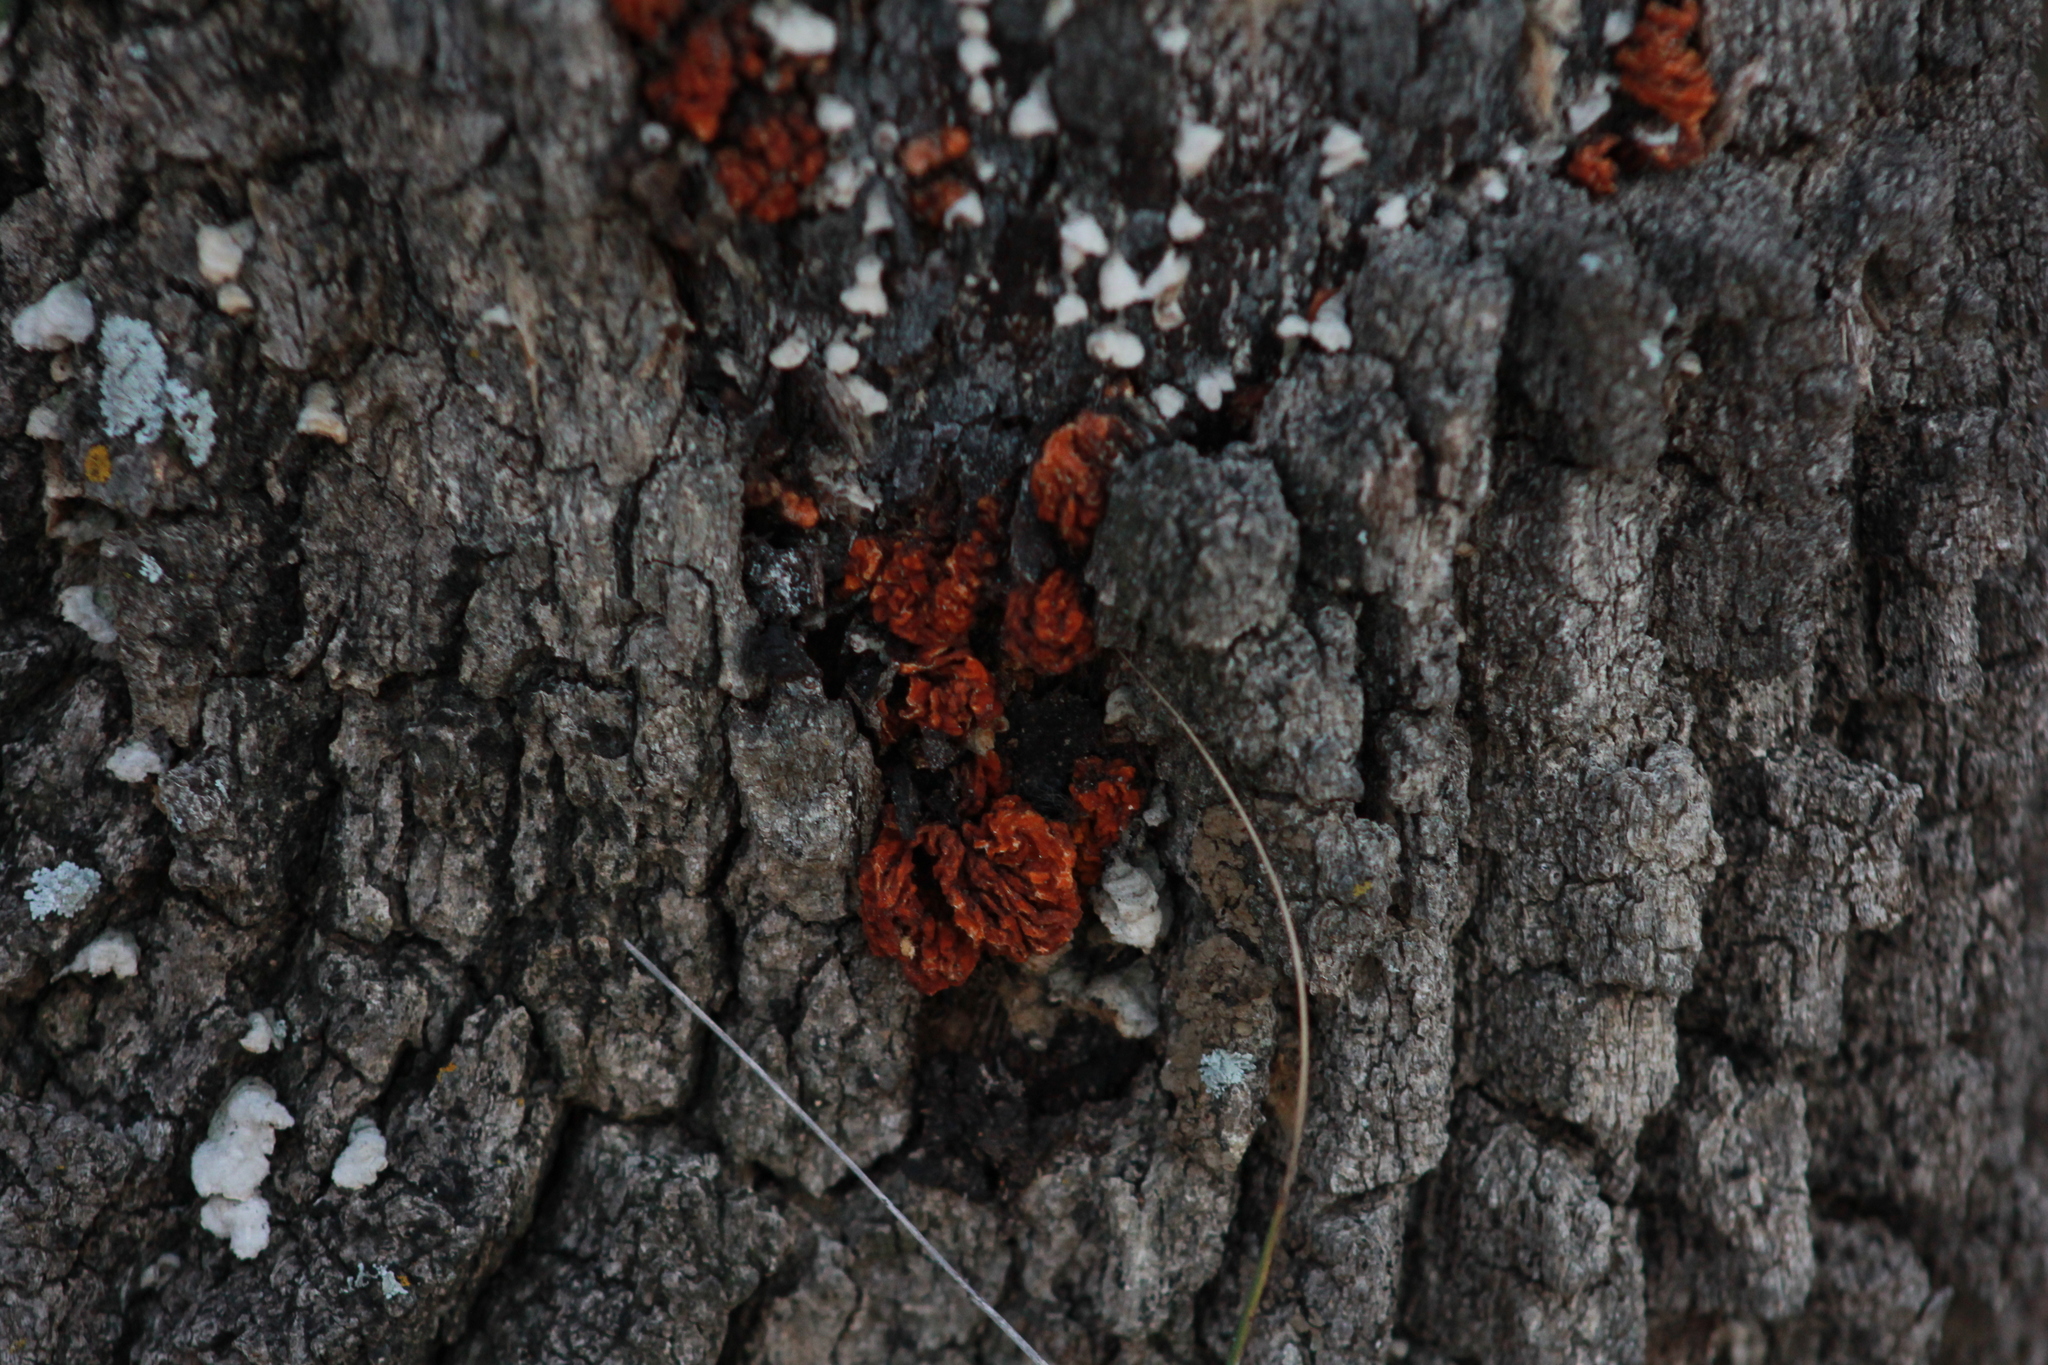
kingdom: Fungi
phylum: Basidiomycota
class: Tremellomycetes
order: Tremellales
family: Naemateliaceae
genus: Naematelia
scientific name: Naematelia aurantia
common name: Golden ear
